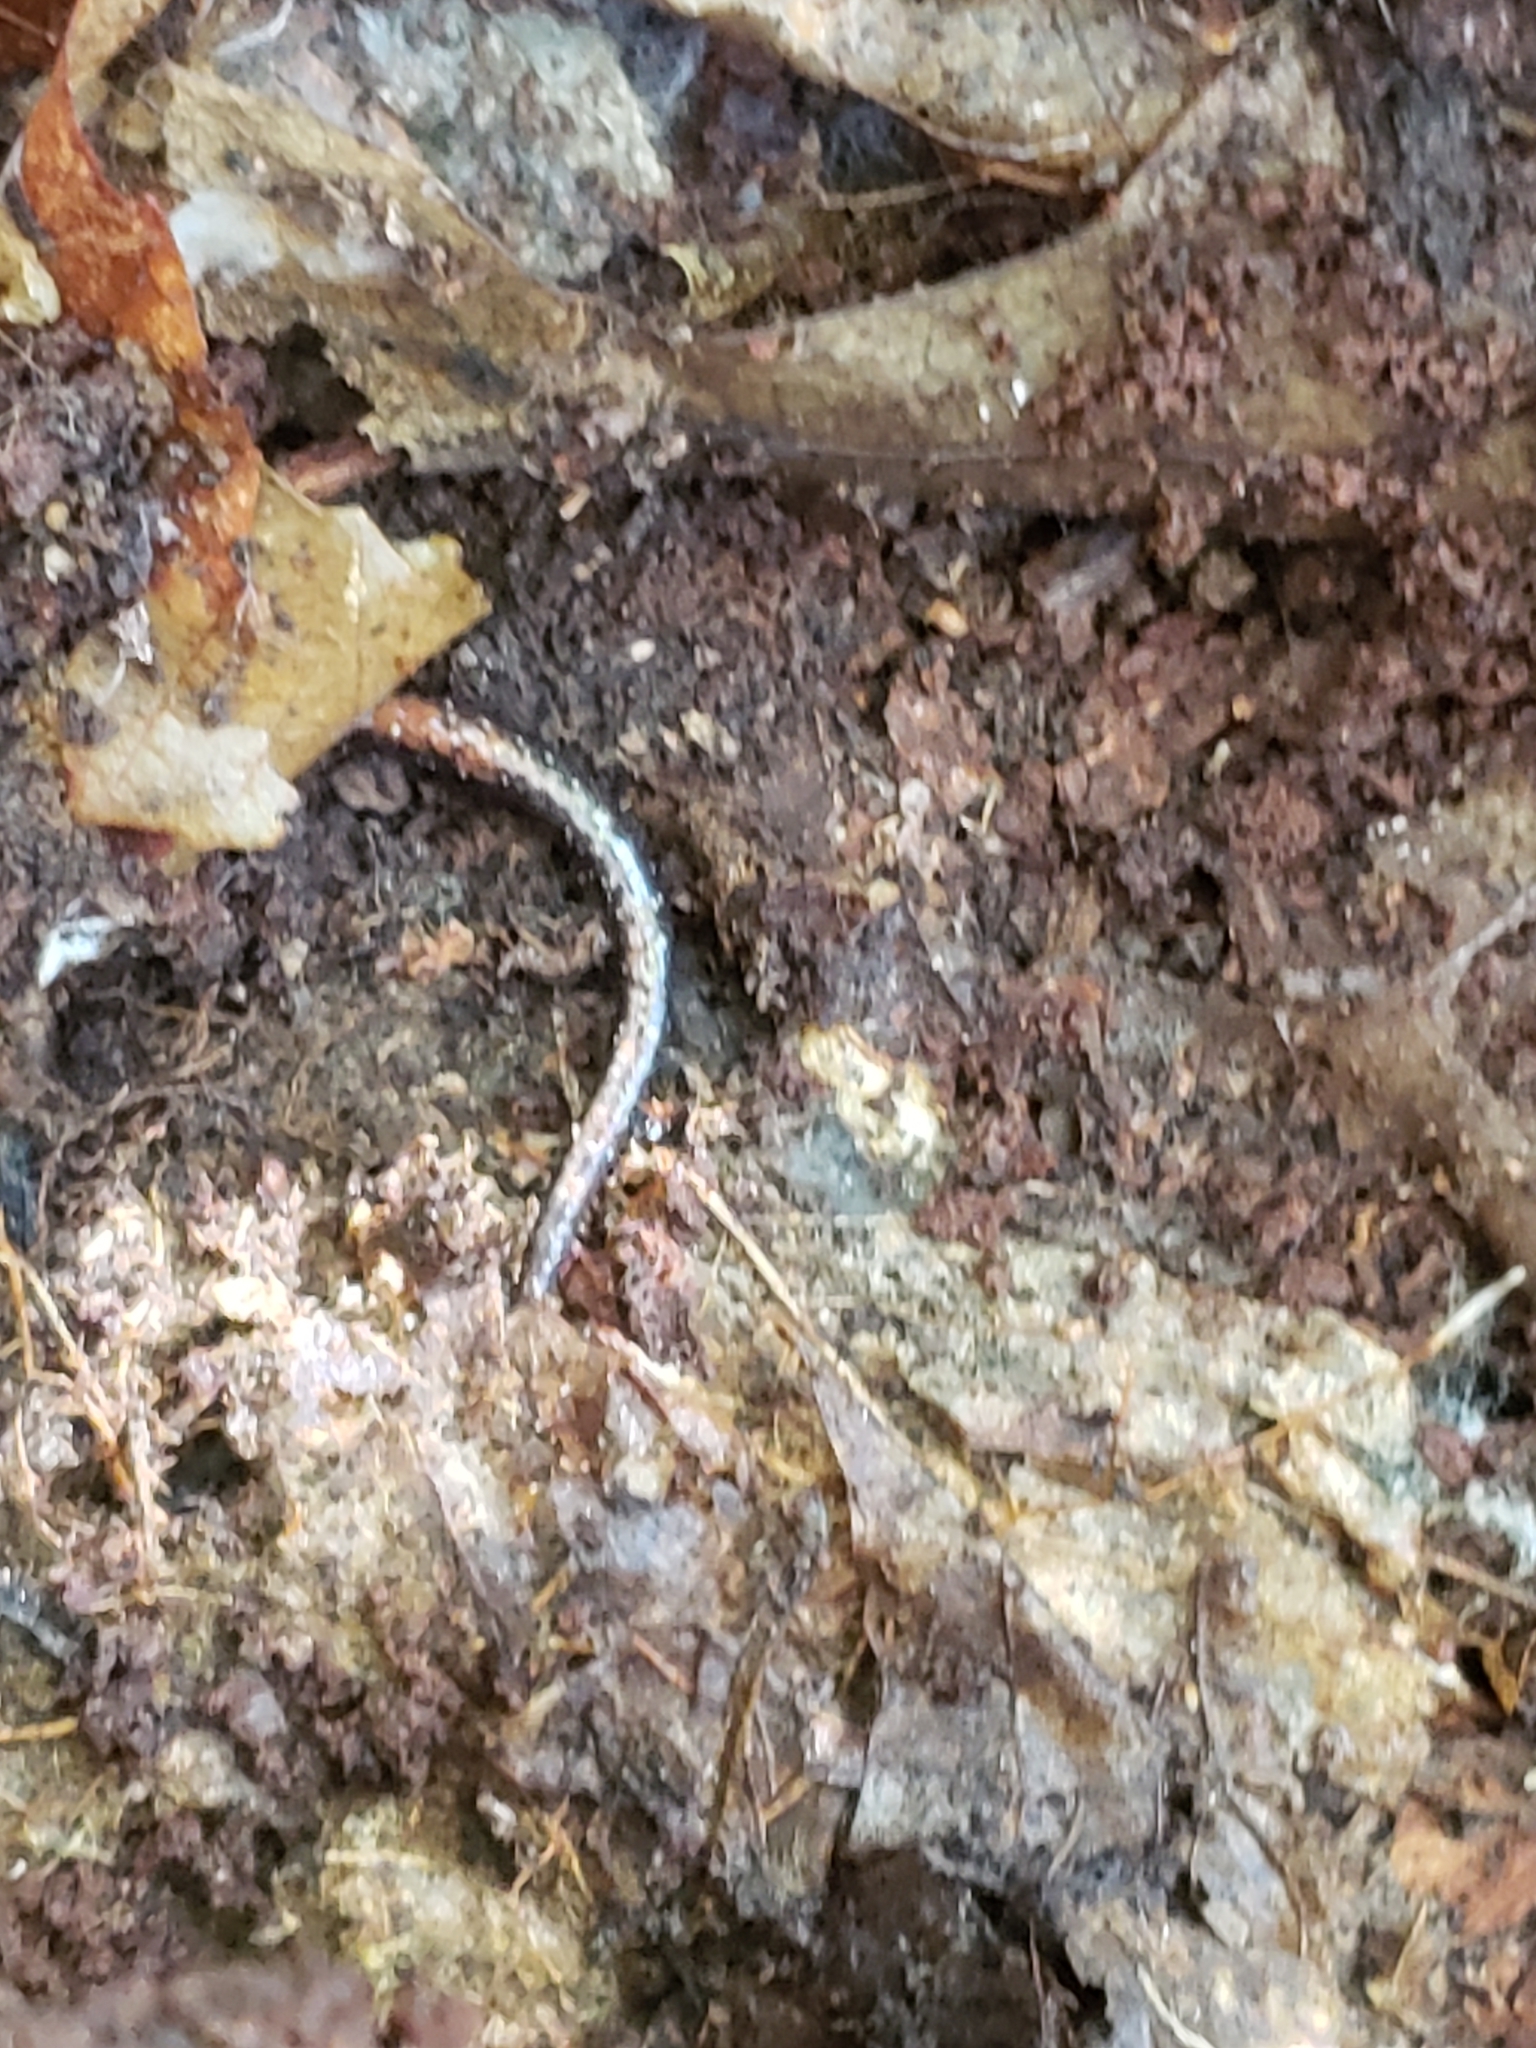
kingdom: Animalia
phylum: Chordata
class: Amphibia
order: Caudata
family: Plethodontidae
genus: Plethodon
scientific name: Plethodon cinereus
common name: Redback salamander
